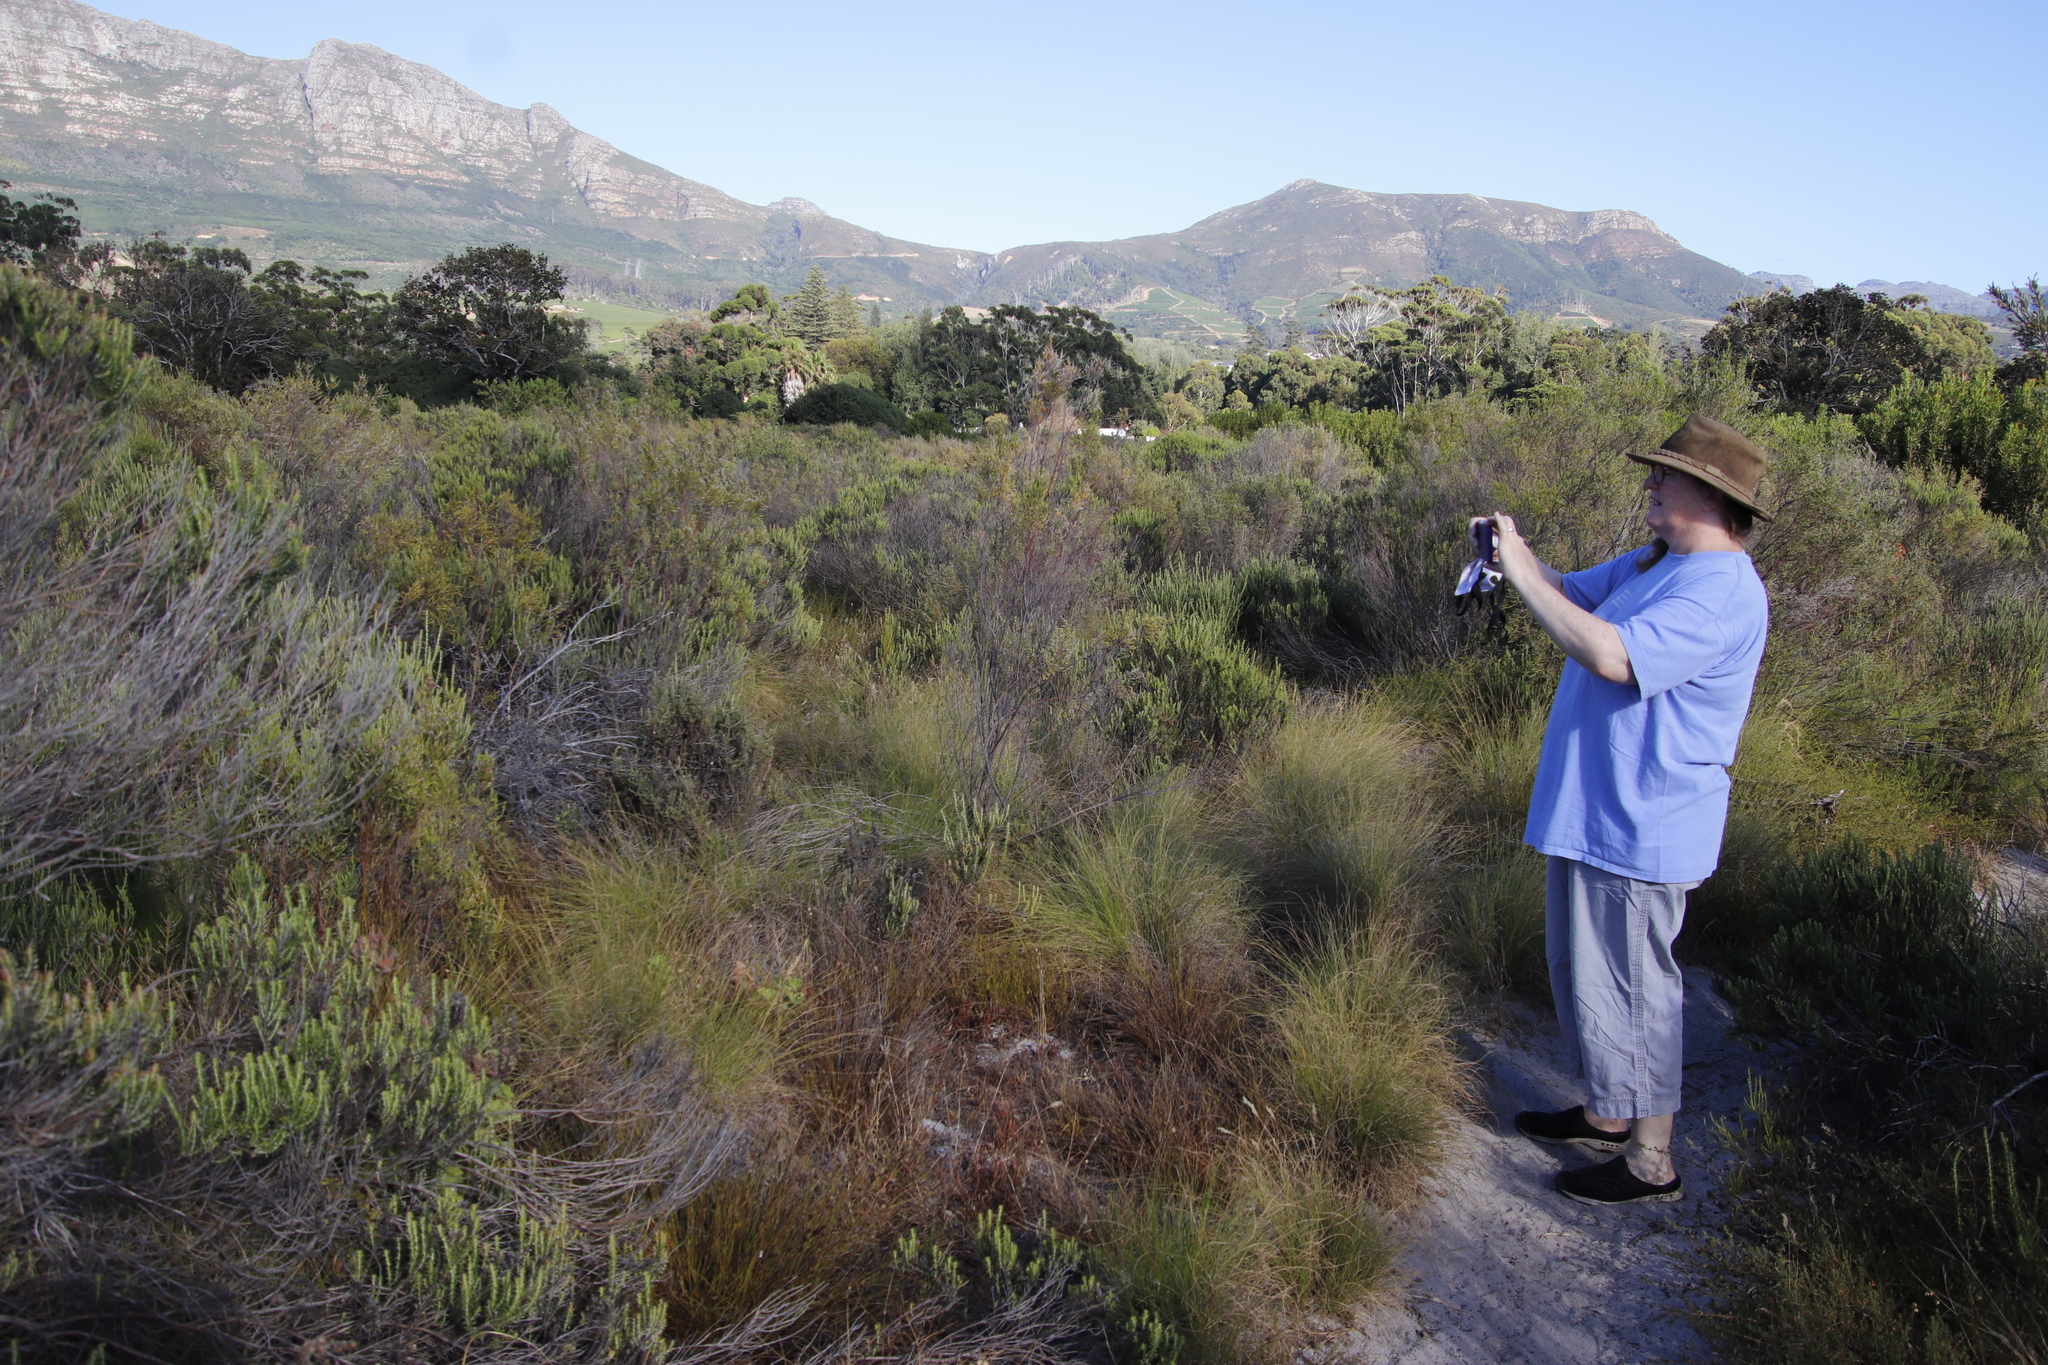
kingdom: Plantae
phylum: Tracheophyta
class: Magnoliopsida
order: Asterales
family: Asteraceae
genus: Metalasia
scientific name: Metalasia densa
